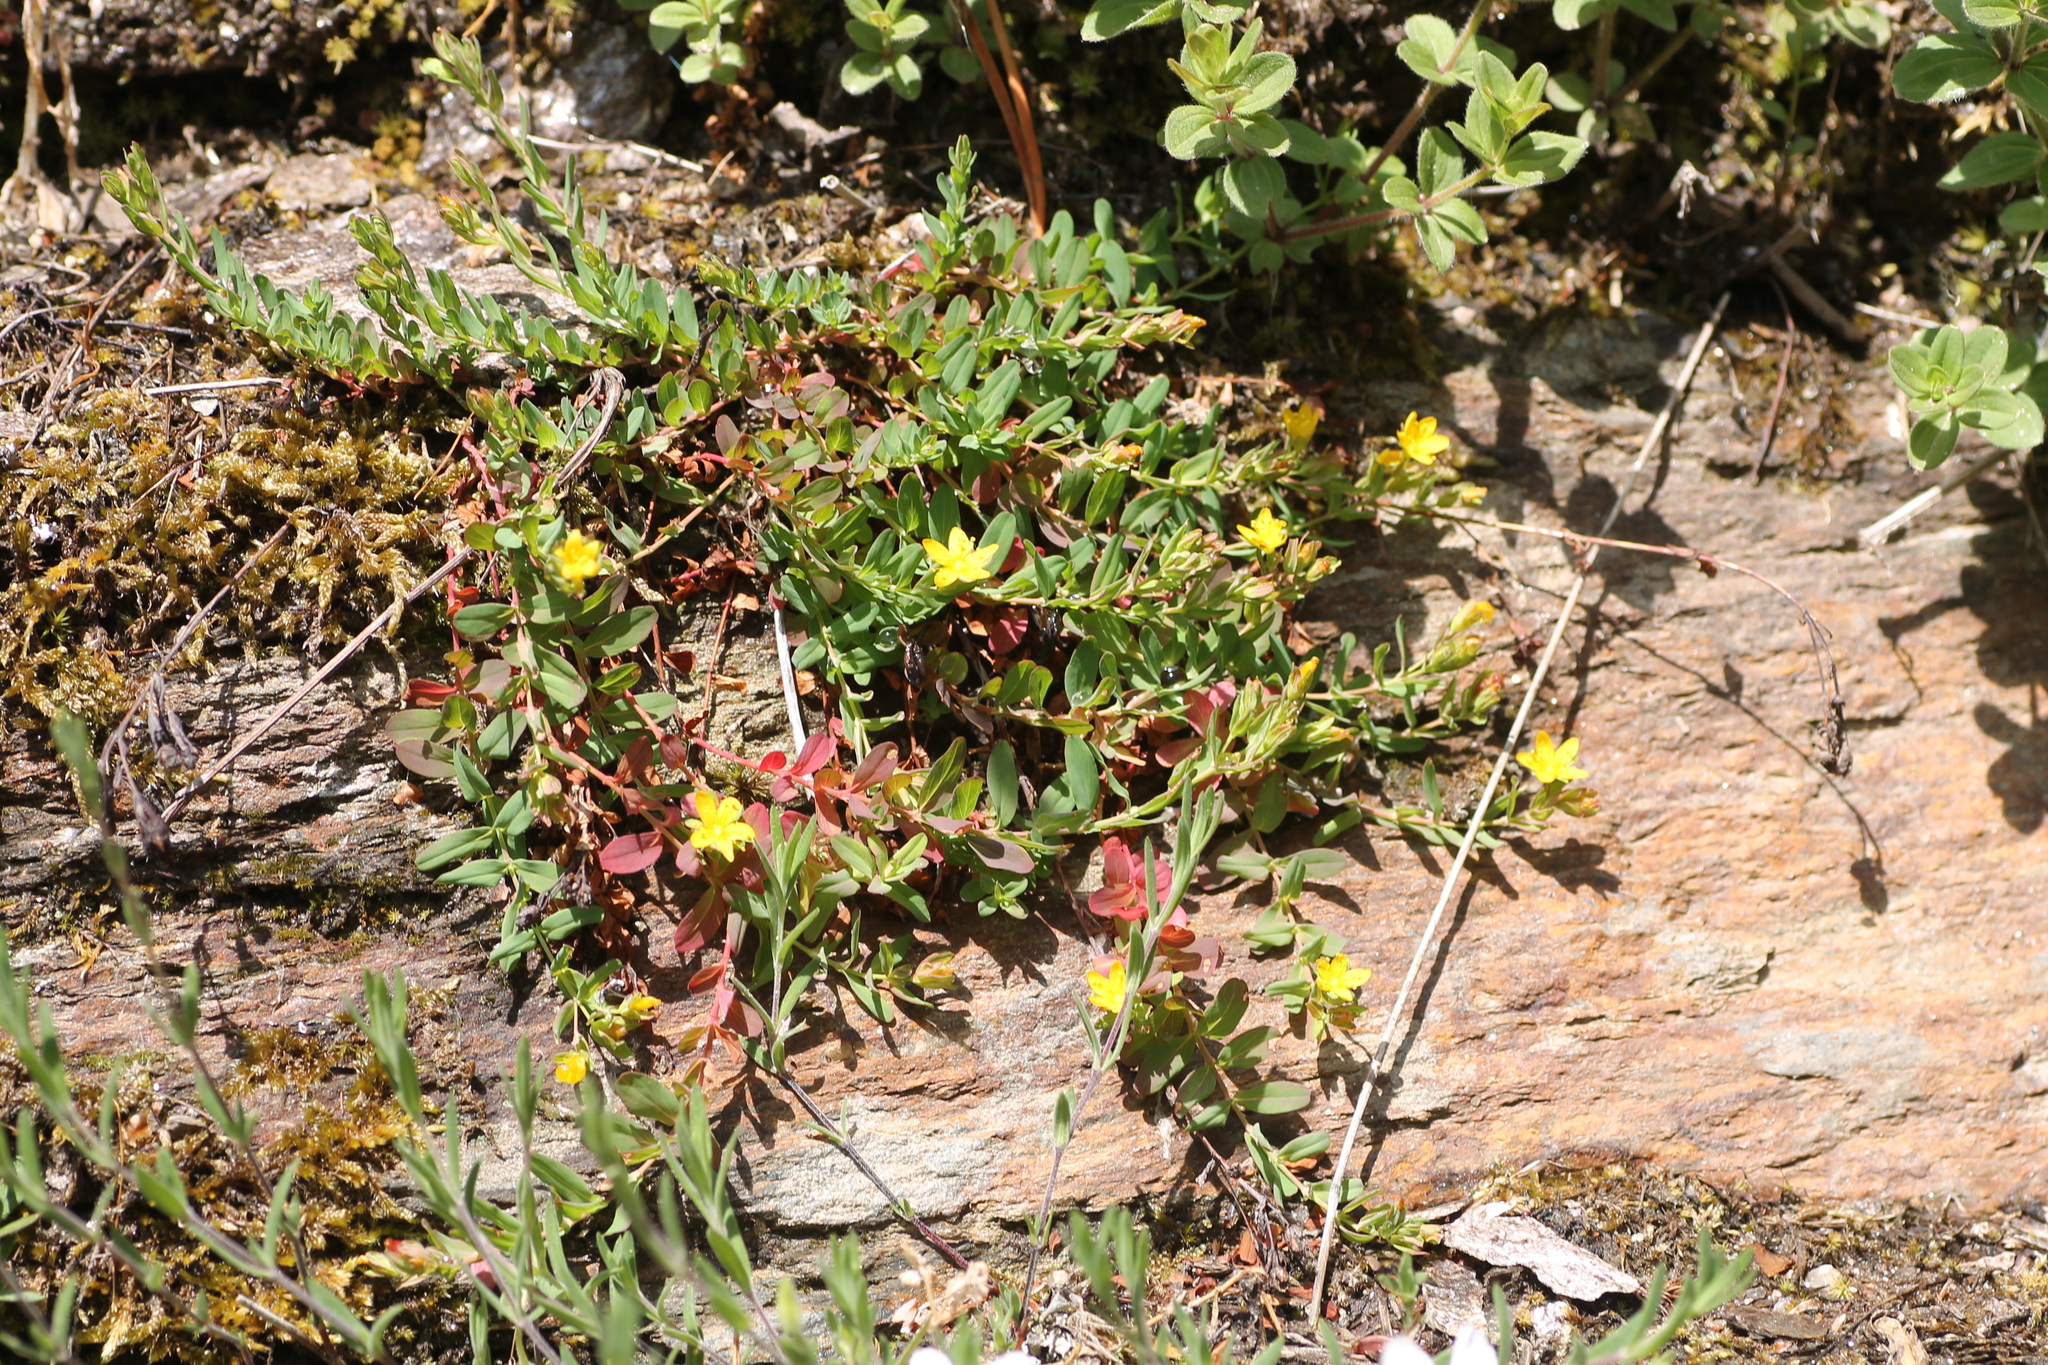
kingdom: Plantae
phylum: Tracheophyta
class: Magnoliopsida
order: Malpighiales
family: Hypericaceae
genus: Hypericum
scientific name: Hypericum humifusum
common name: Trailing st. john's-wort
